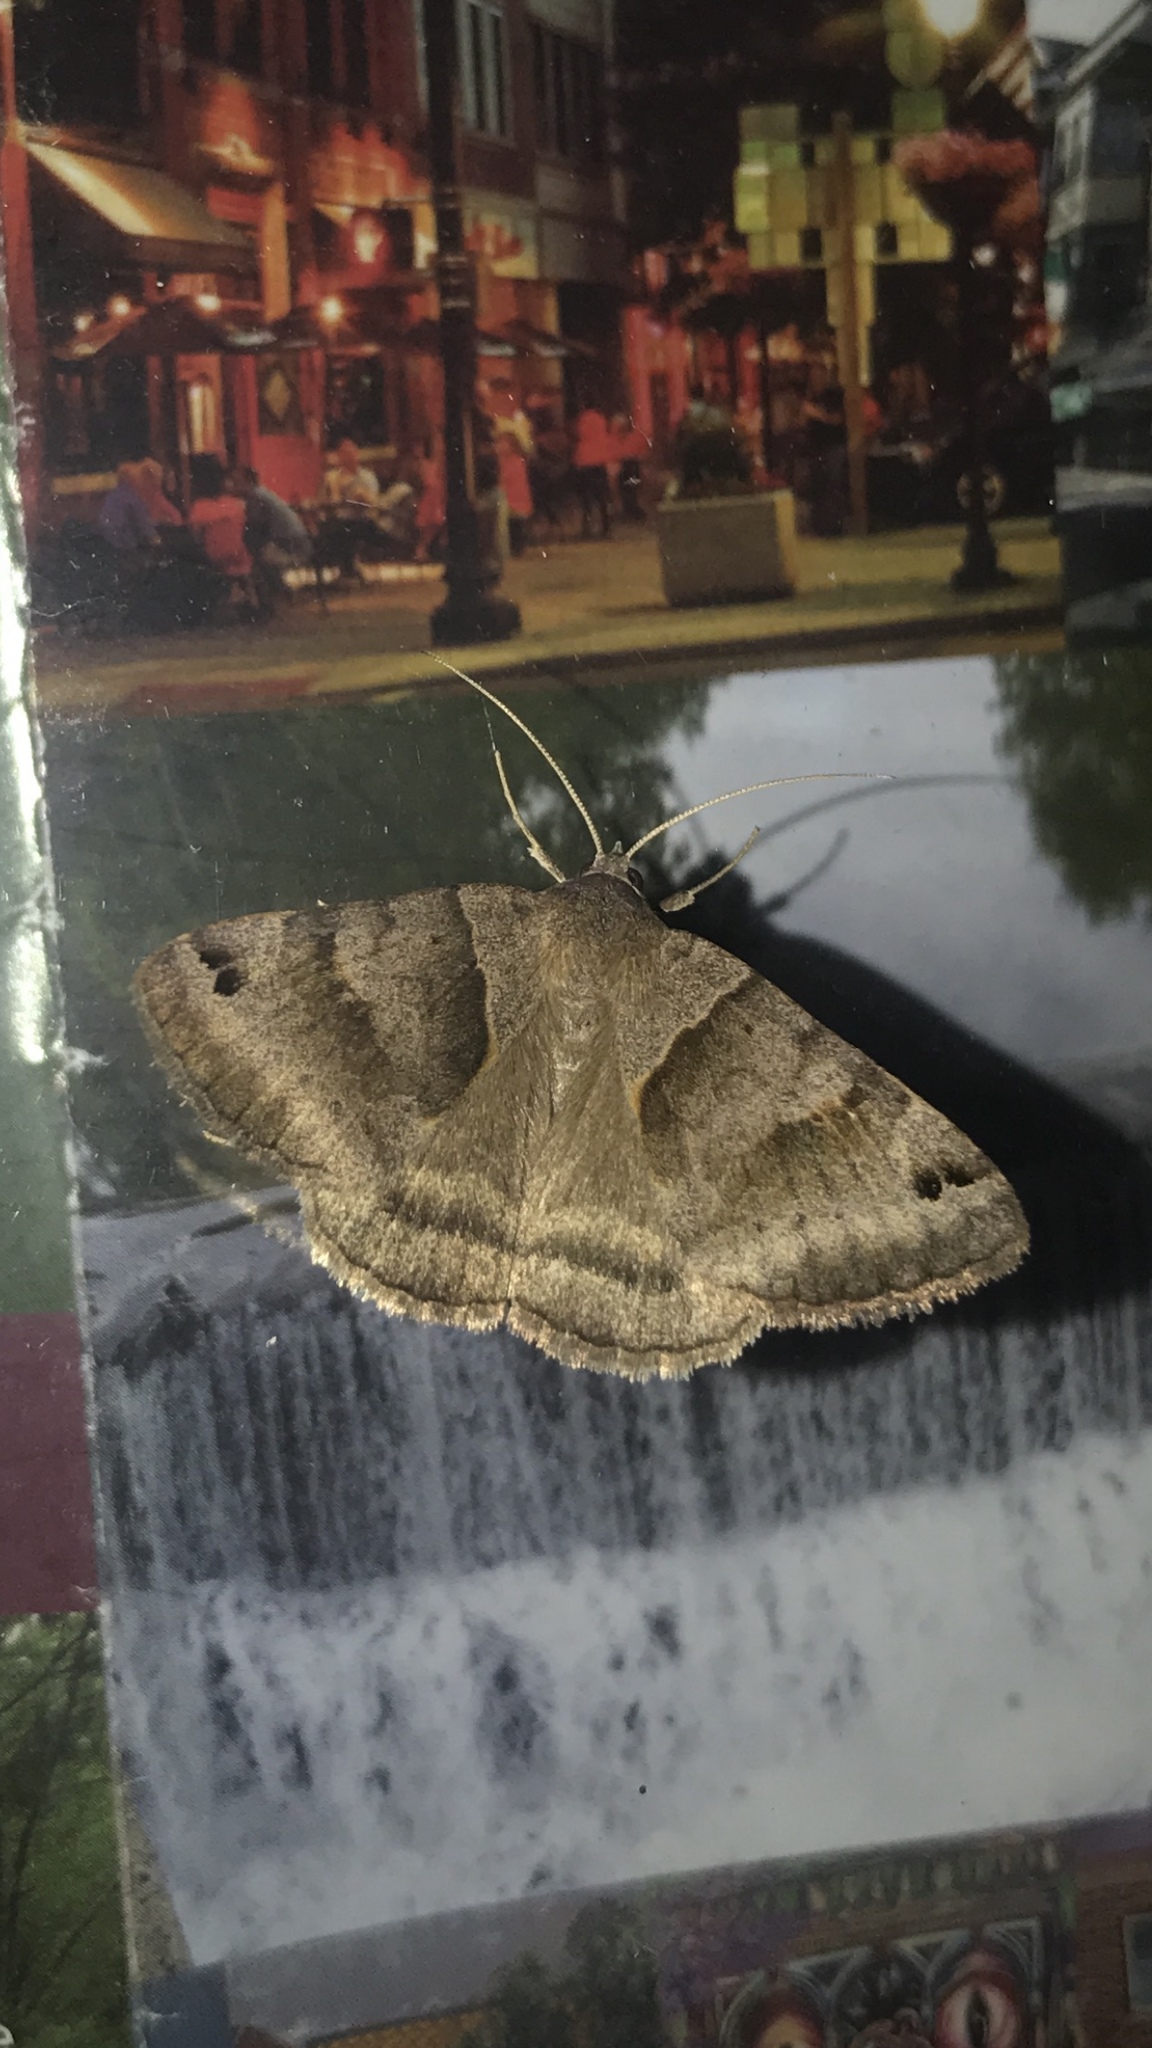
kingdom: Animalia
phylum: Arthropoda
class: Insecta
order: Lepidoptera
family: Erebidae
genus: Caenurgina
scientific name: Caenurgina erechtea
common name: Forage looper moth
